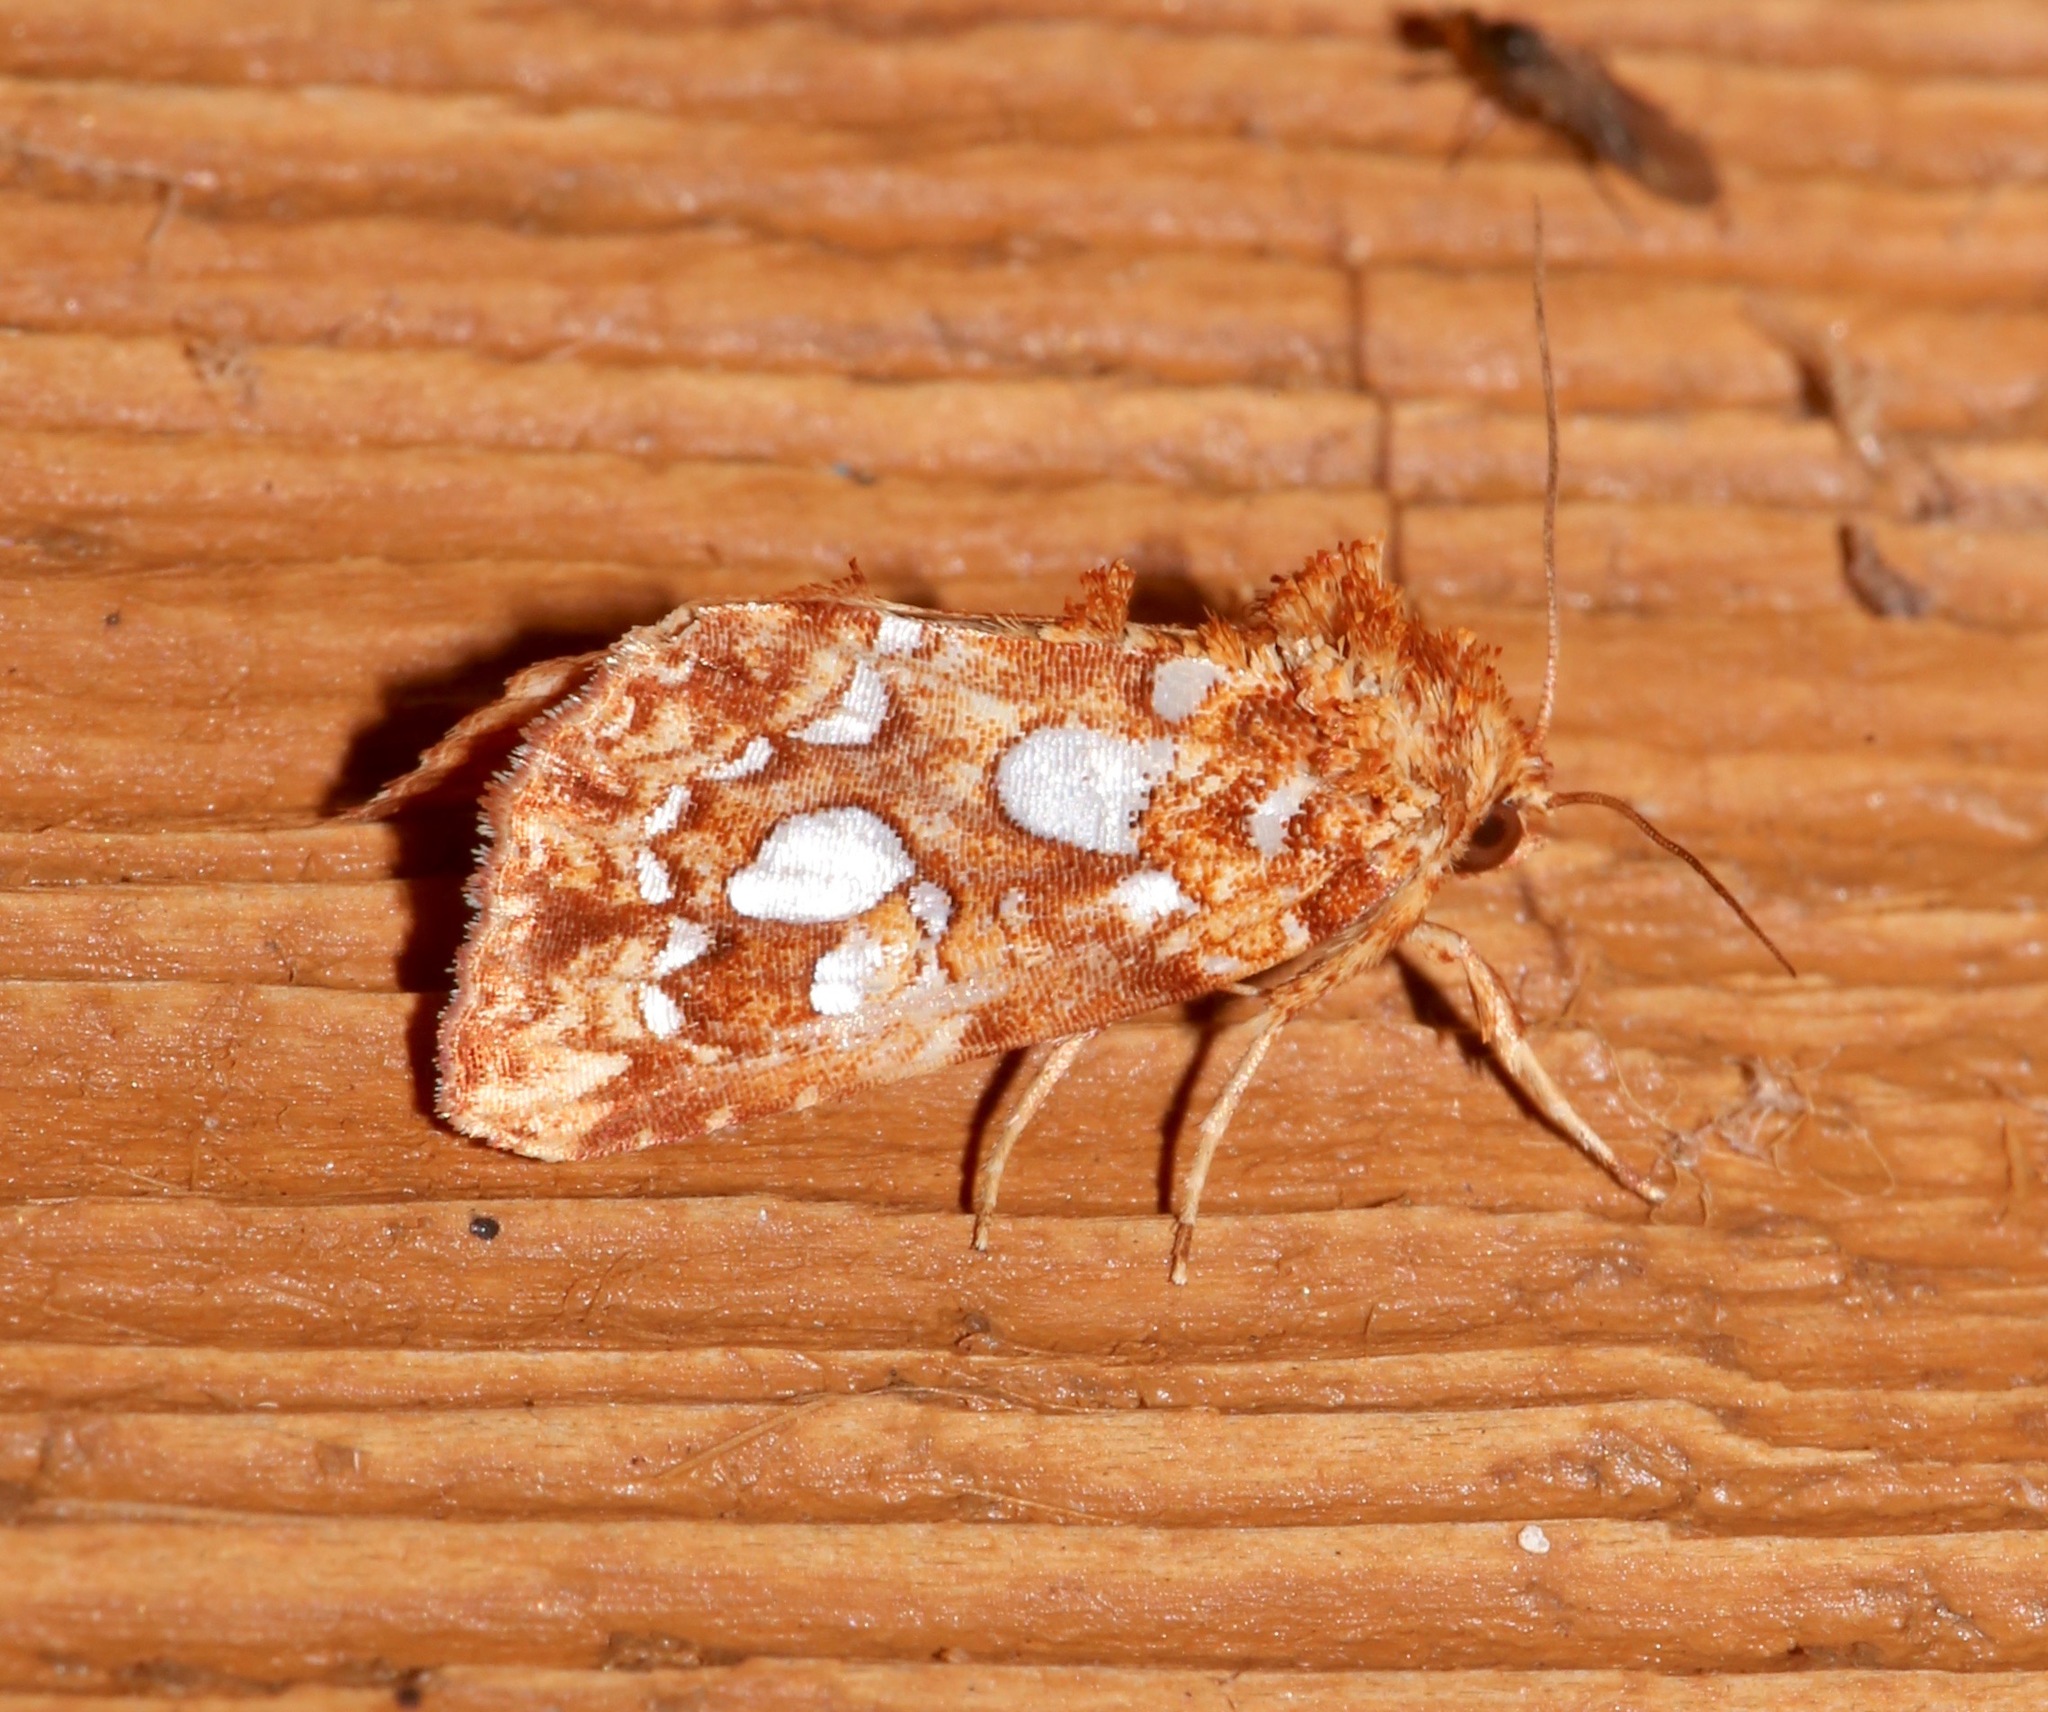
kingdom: Animalia
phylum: Arthropoda
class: Insecta
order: Lepidoptera
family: Noctuidae
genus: Callopistria
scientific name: Callopistria cordata
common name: Silver-spotted fern moth
